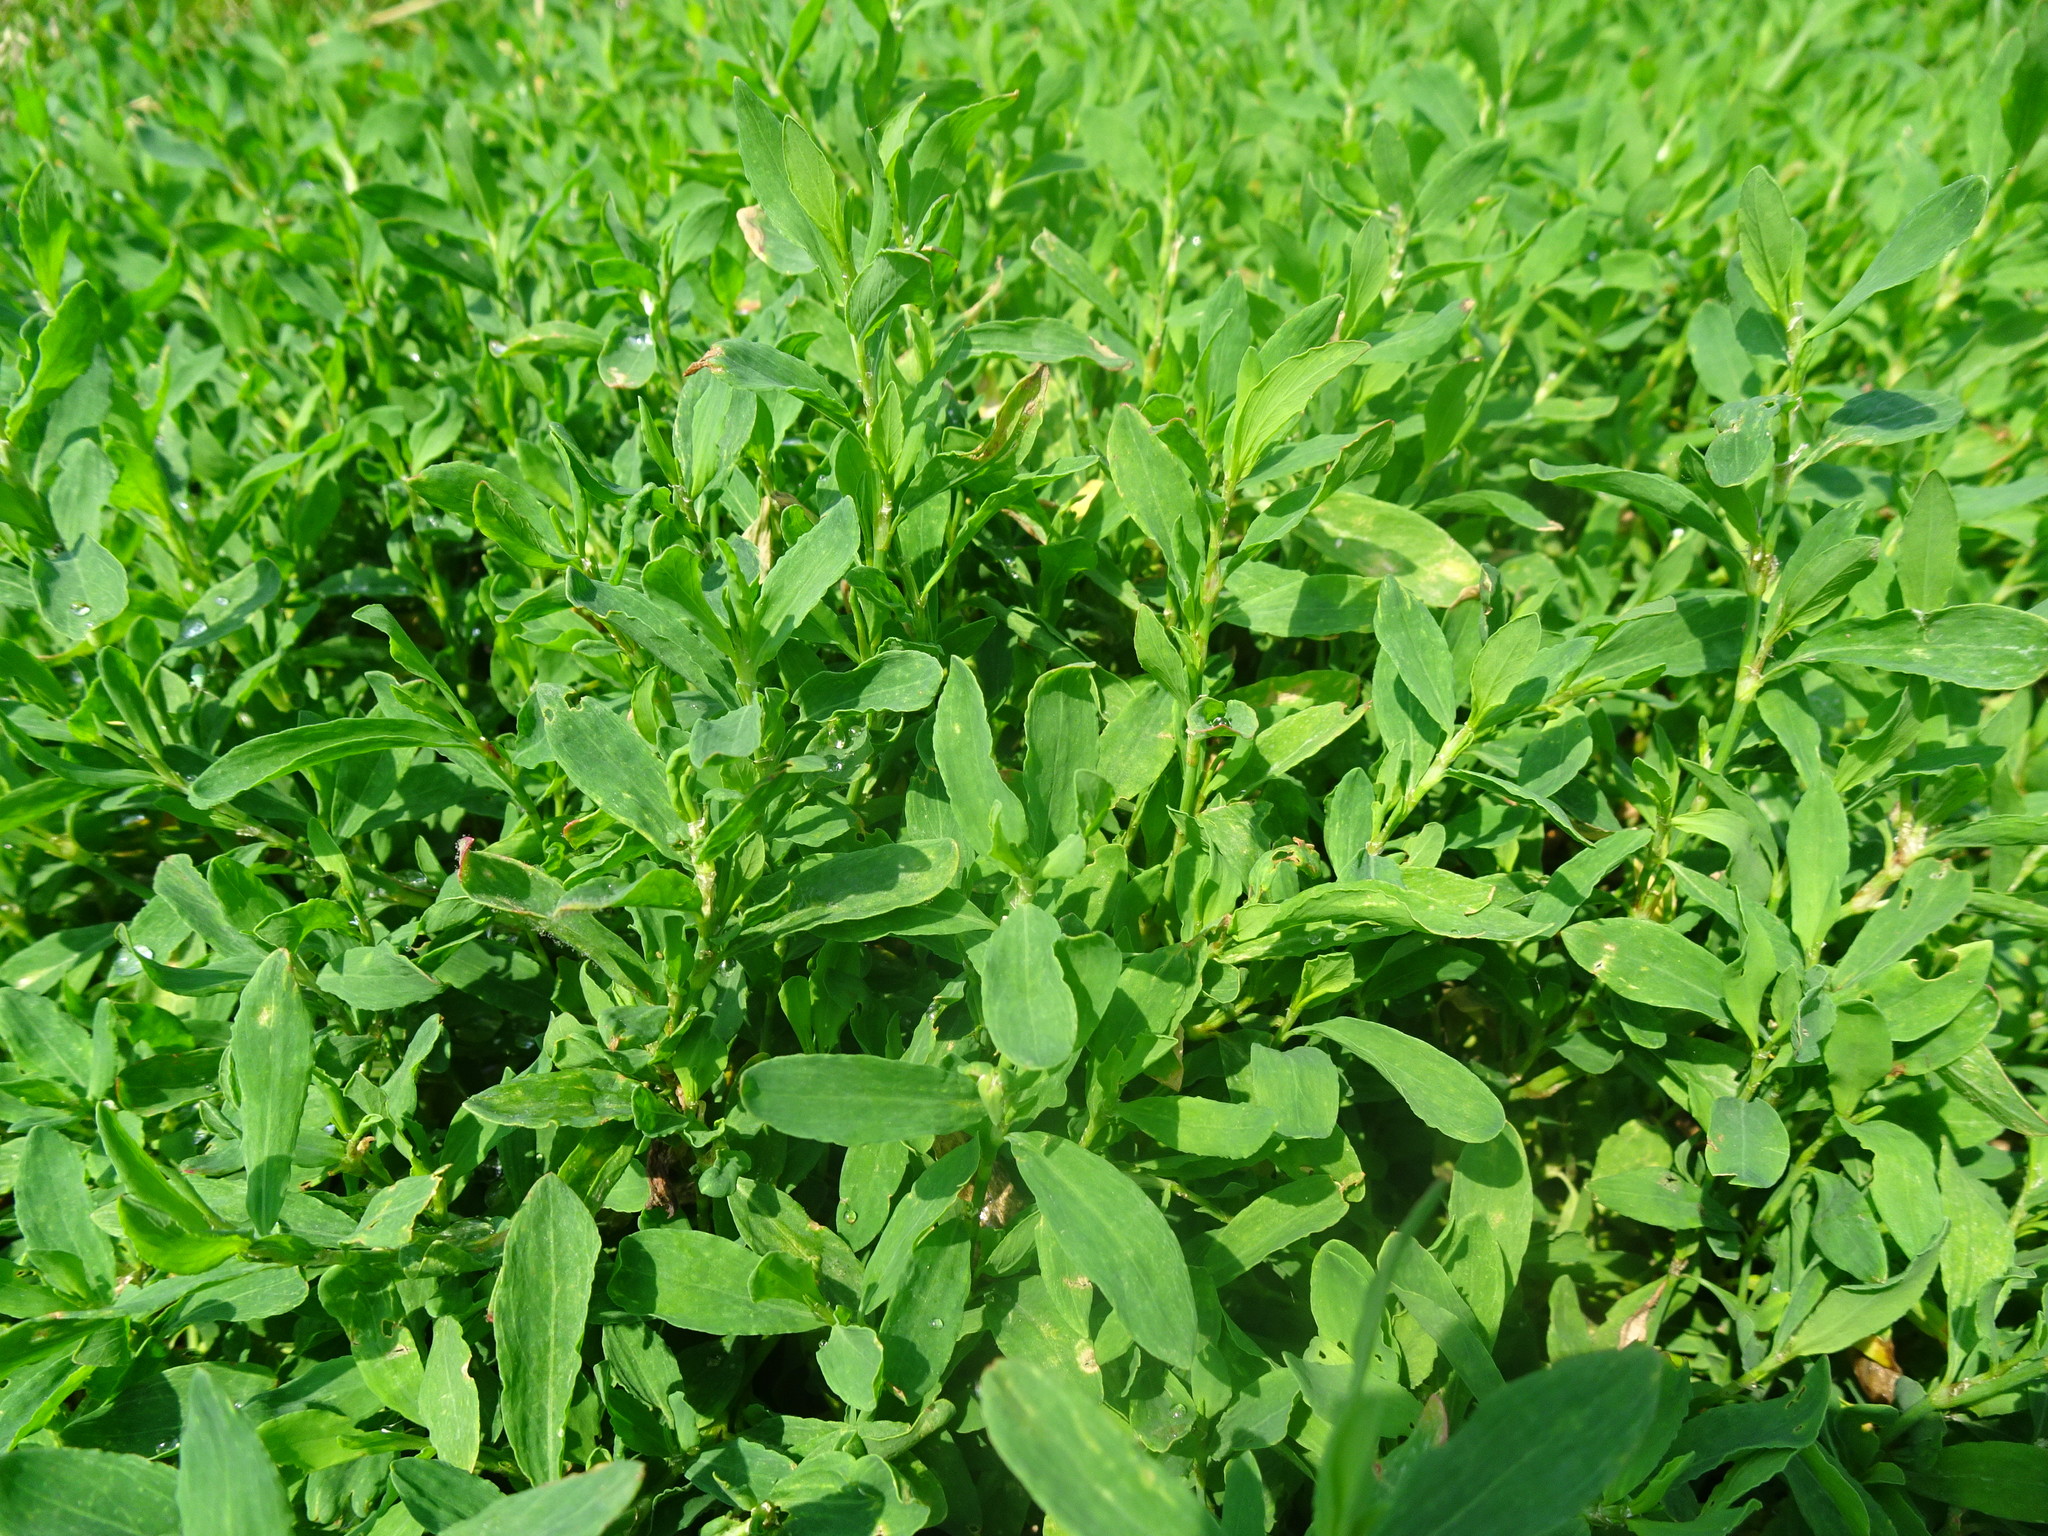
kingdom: Plantae
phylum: Tracheophyta
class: Magnoliopsida
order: Caryophyllales
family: Polygonaceae
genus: Polygonum
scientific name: Polygonum aviculare
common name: Prostrate knotweed
